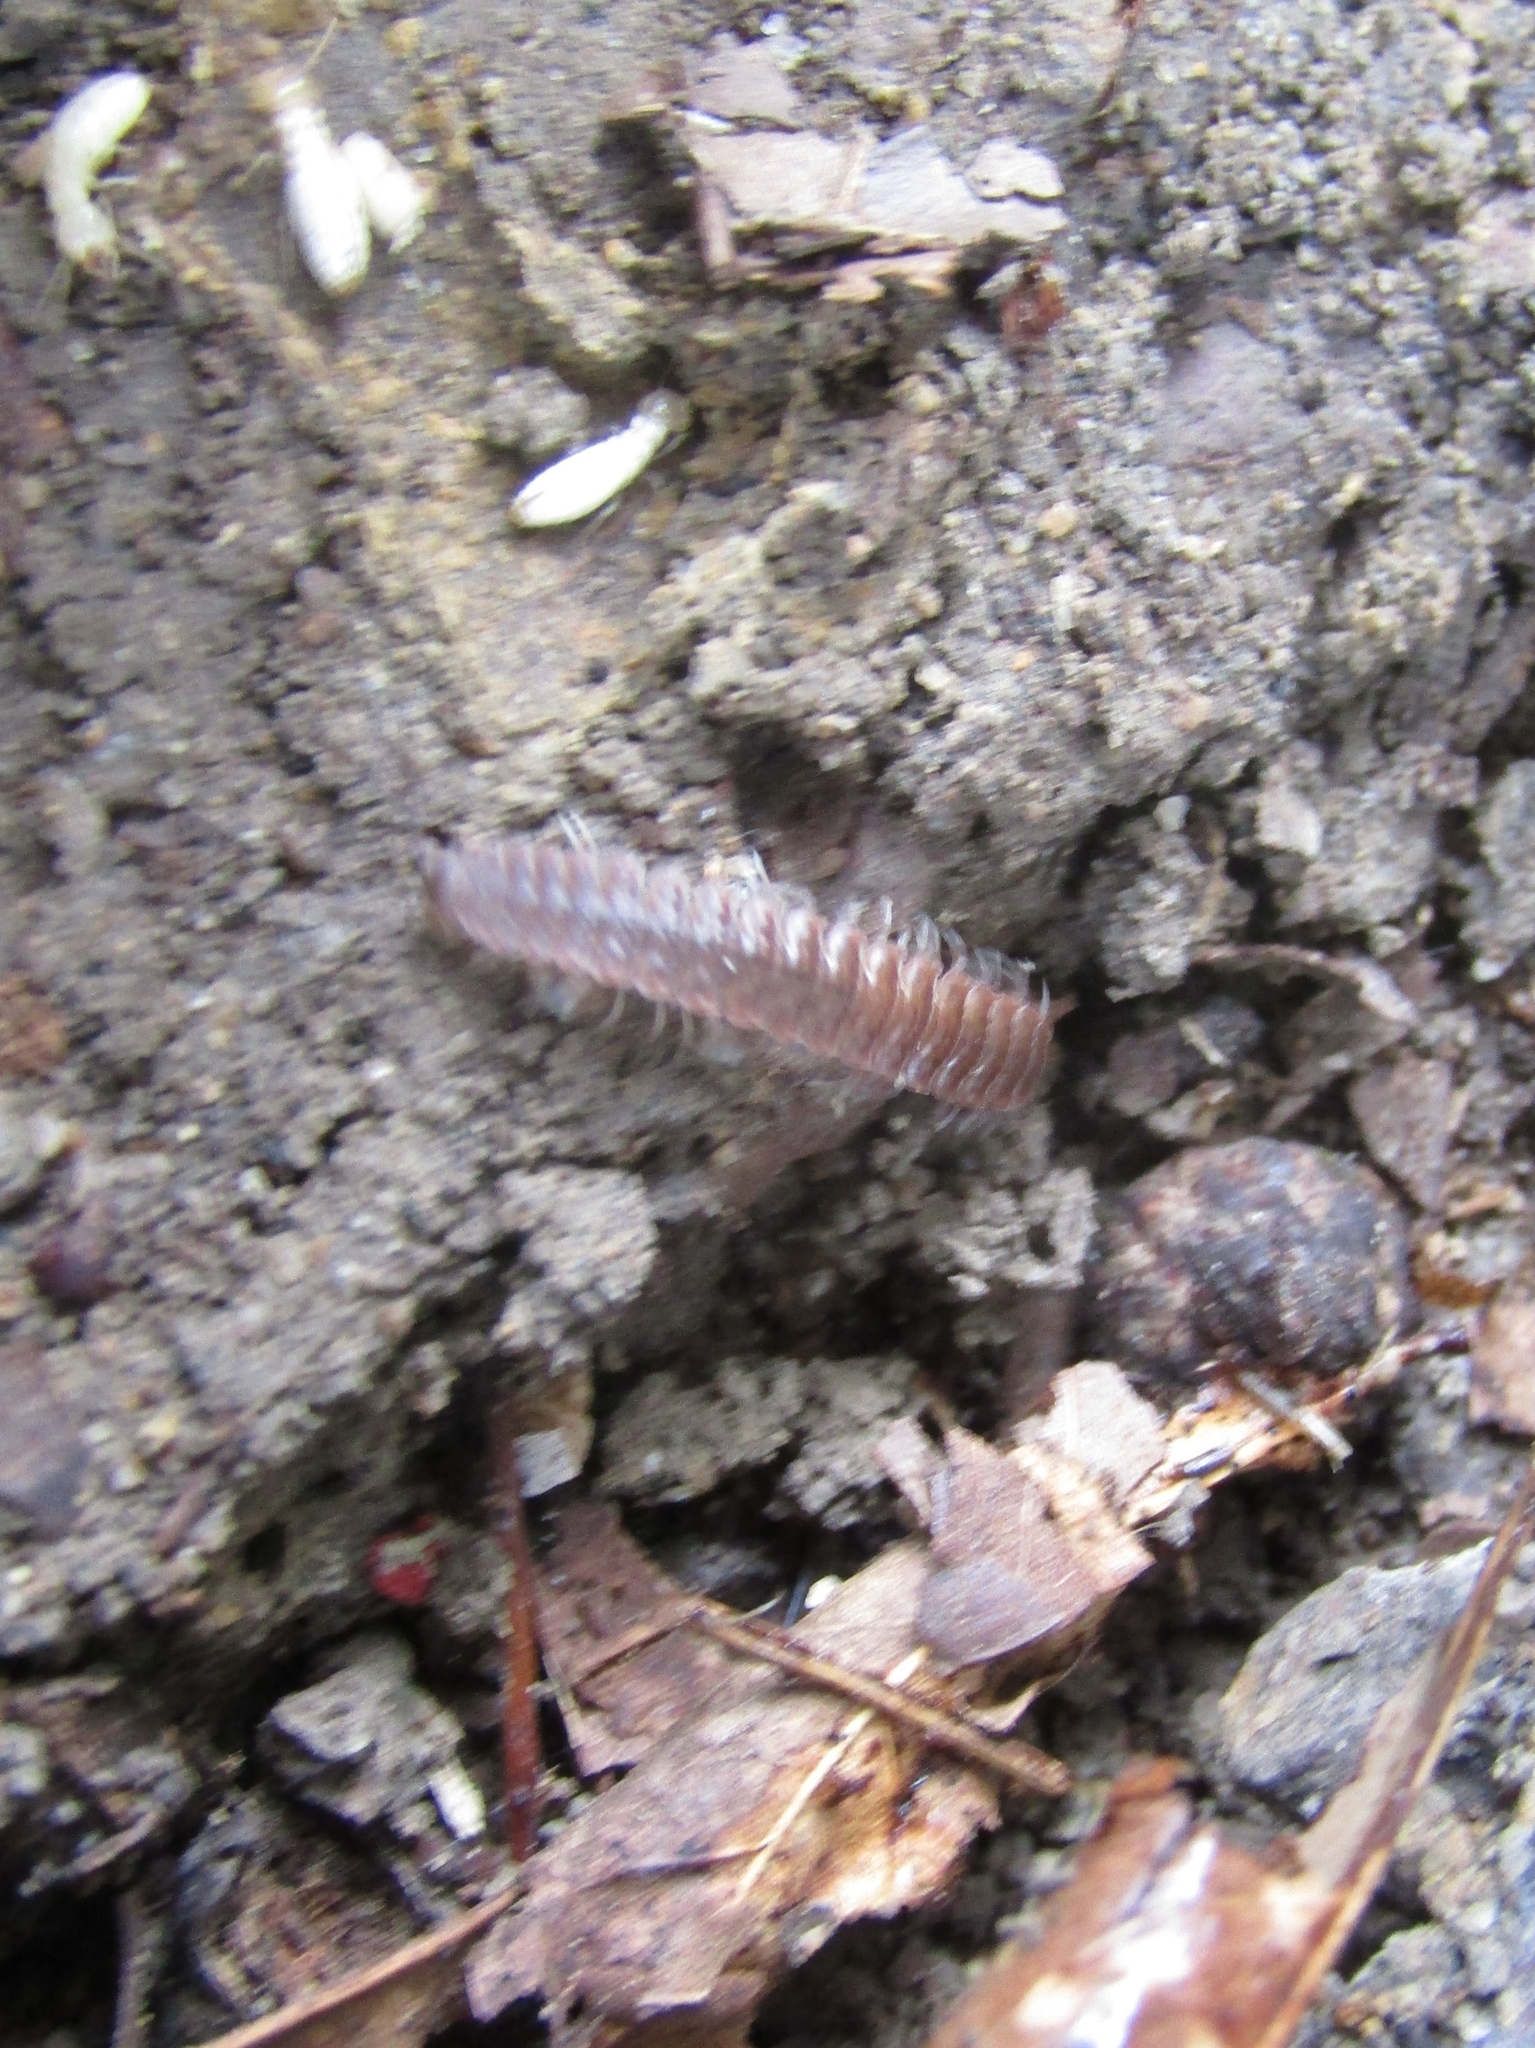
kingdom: Animalia
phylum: Arthropoda
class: Diplopoda
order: Polydesmida
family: Polydesmidae
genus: Pseudopolydesmus
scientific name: Pseudopolydesmus serratus
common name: Common pink flat-back millipede
